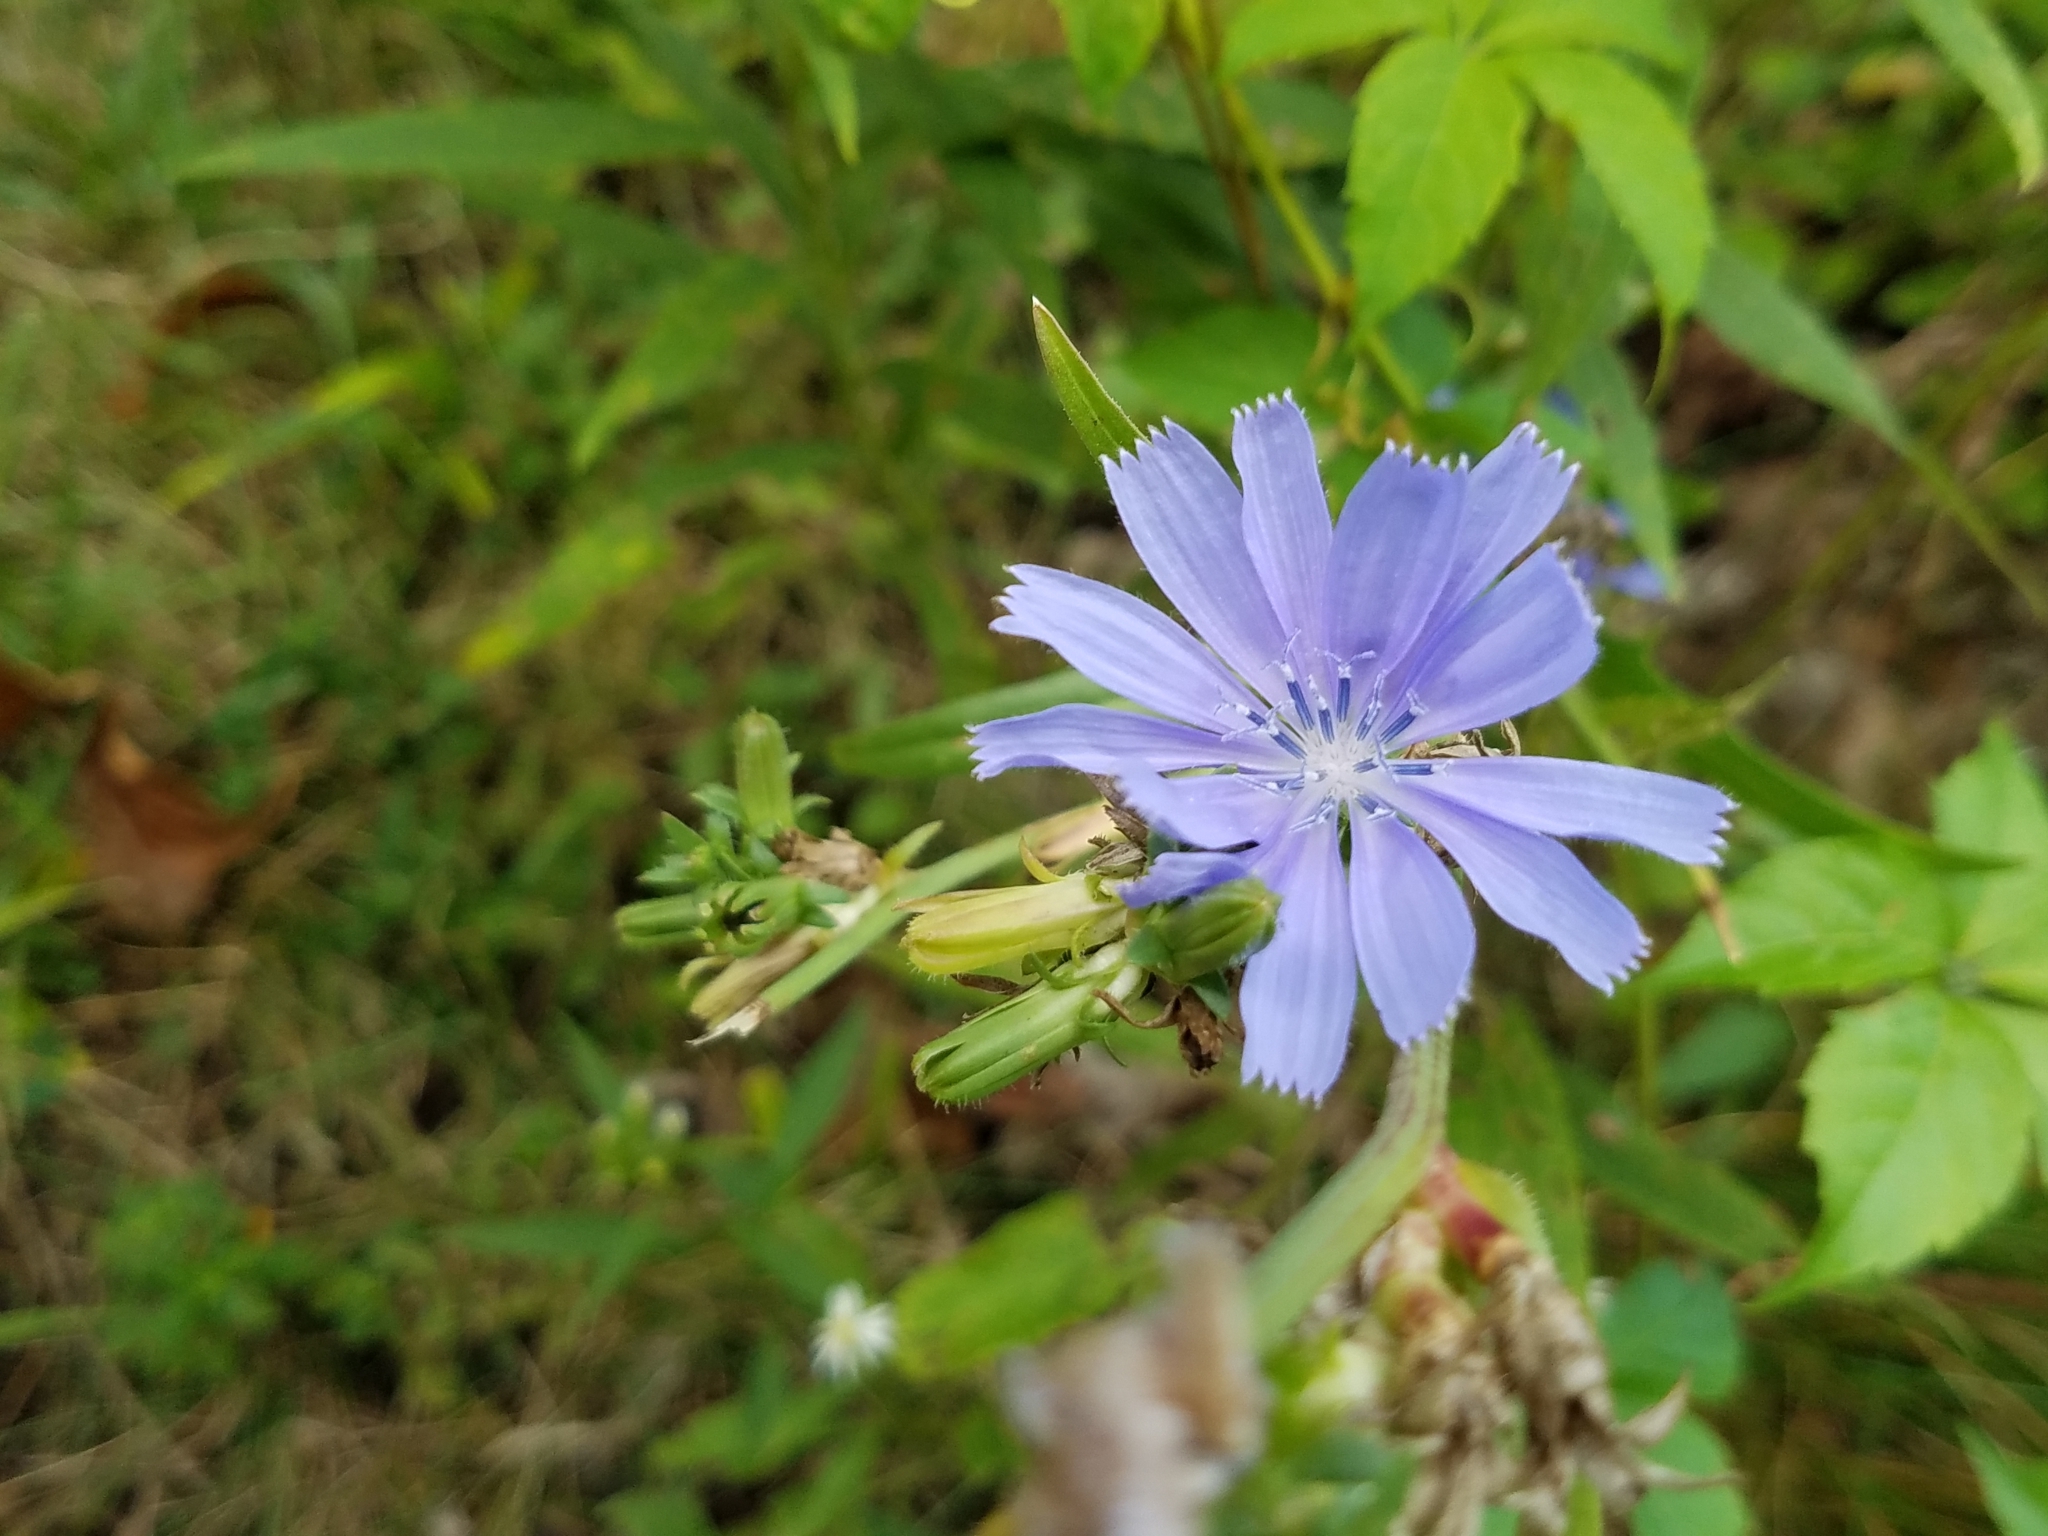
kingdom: Plantae
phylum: Tracheophyta
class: Magnoliopsida
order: Asterales
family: Asteraceae
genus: Cichorium
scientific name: Cichorium intybus
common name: Chicory
